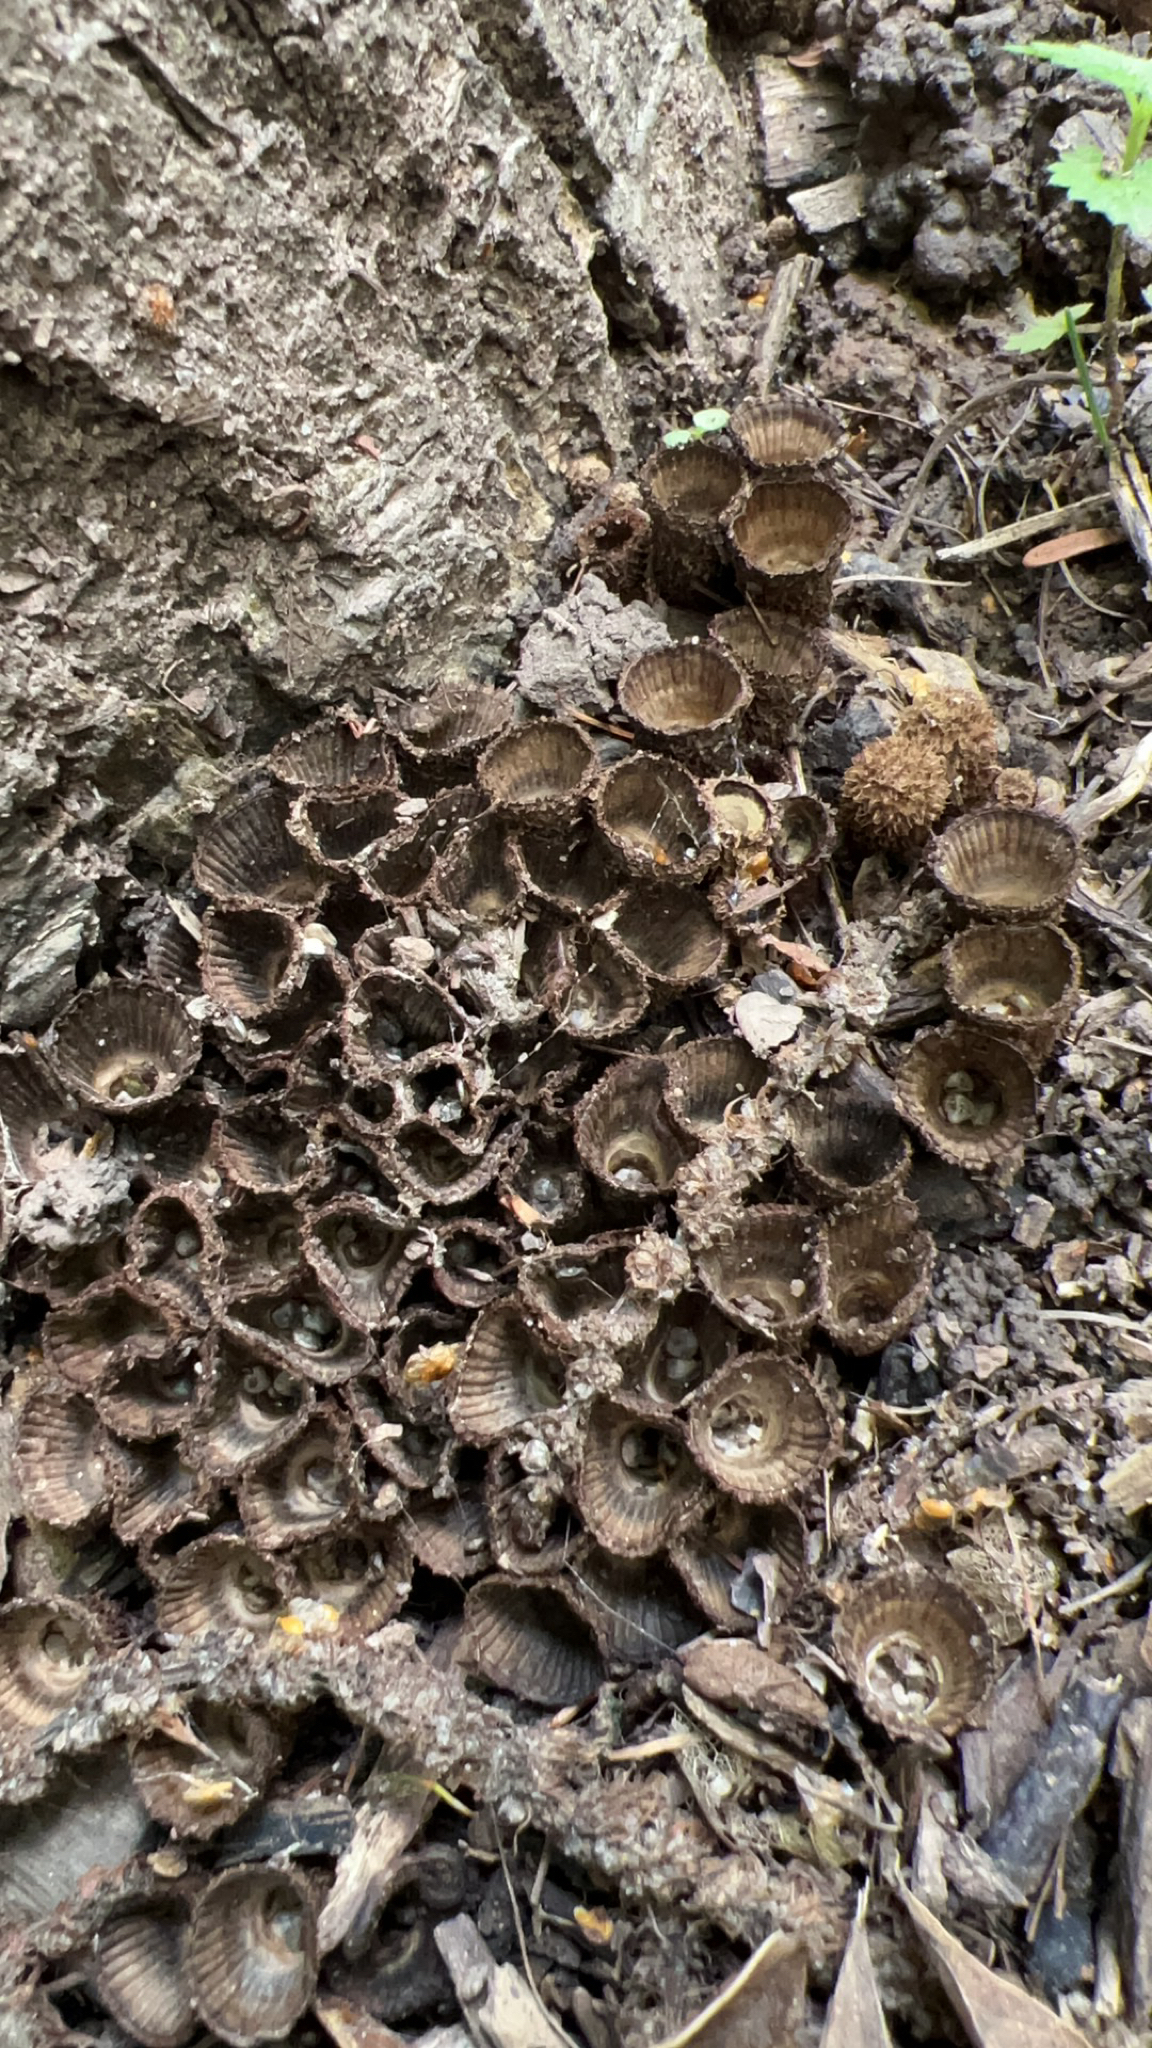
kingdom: Fungi
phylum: Basidiomycota
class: Agaricomycetes
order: Agaricales
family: Agaricaceae
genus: Cyathus
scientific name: Cyathus striatus
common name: Fluted bird's nest
